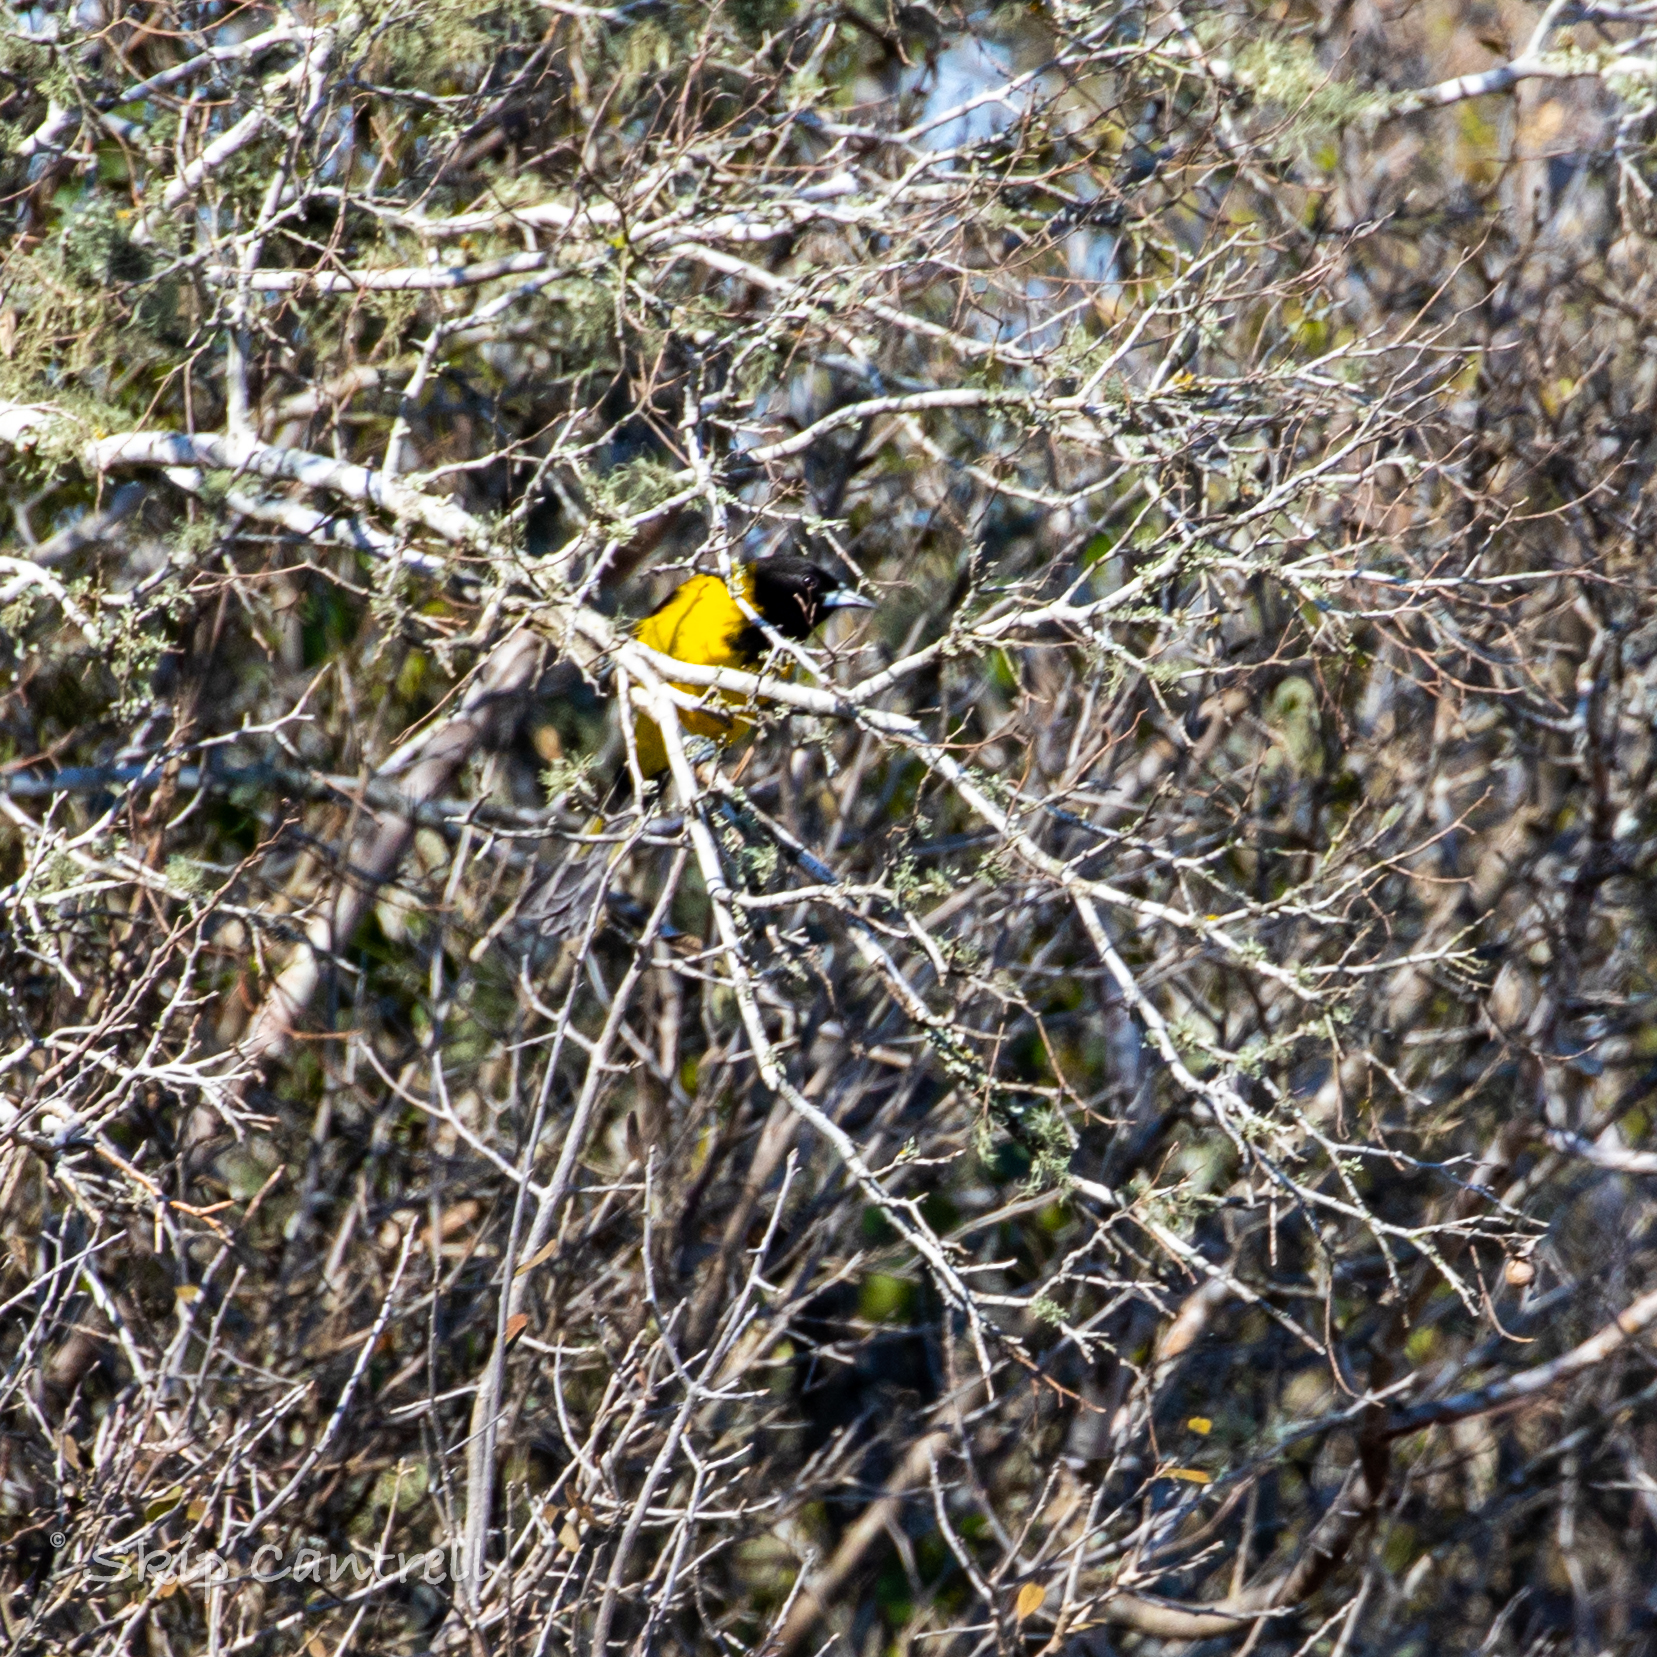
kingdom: Animalia
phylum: Chordata
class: Aves
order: Passeriformes
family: Icteridae
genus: Icterus
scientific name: Icterus graduacauda
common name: Audubon's oriole
